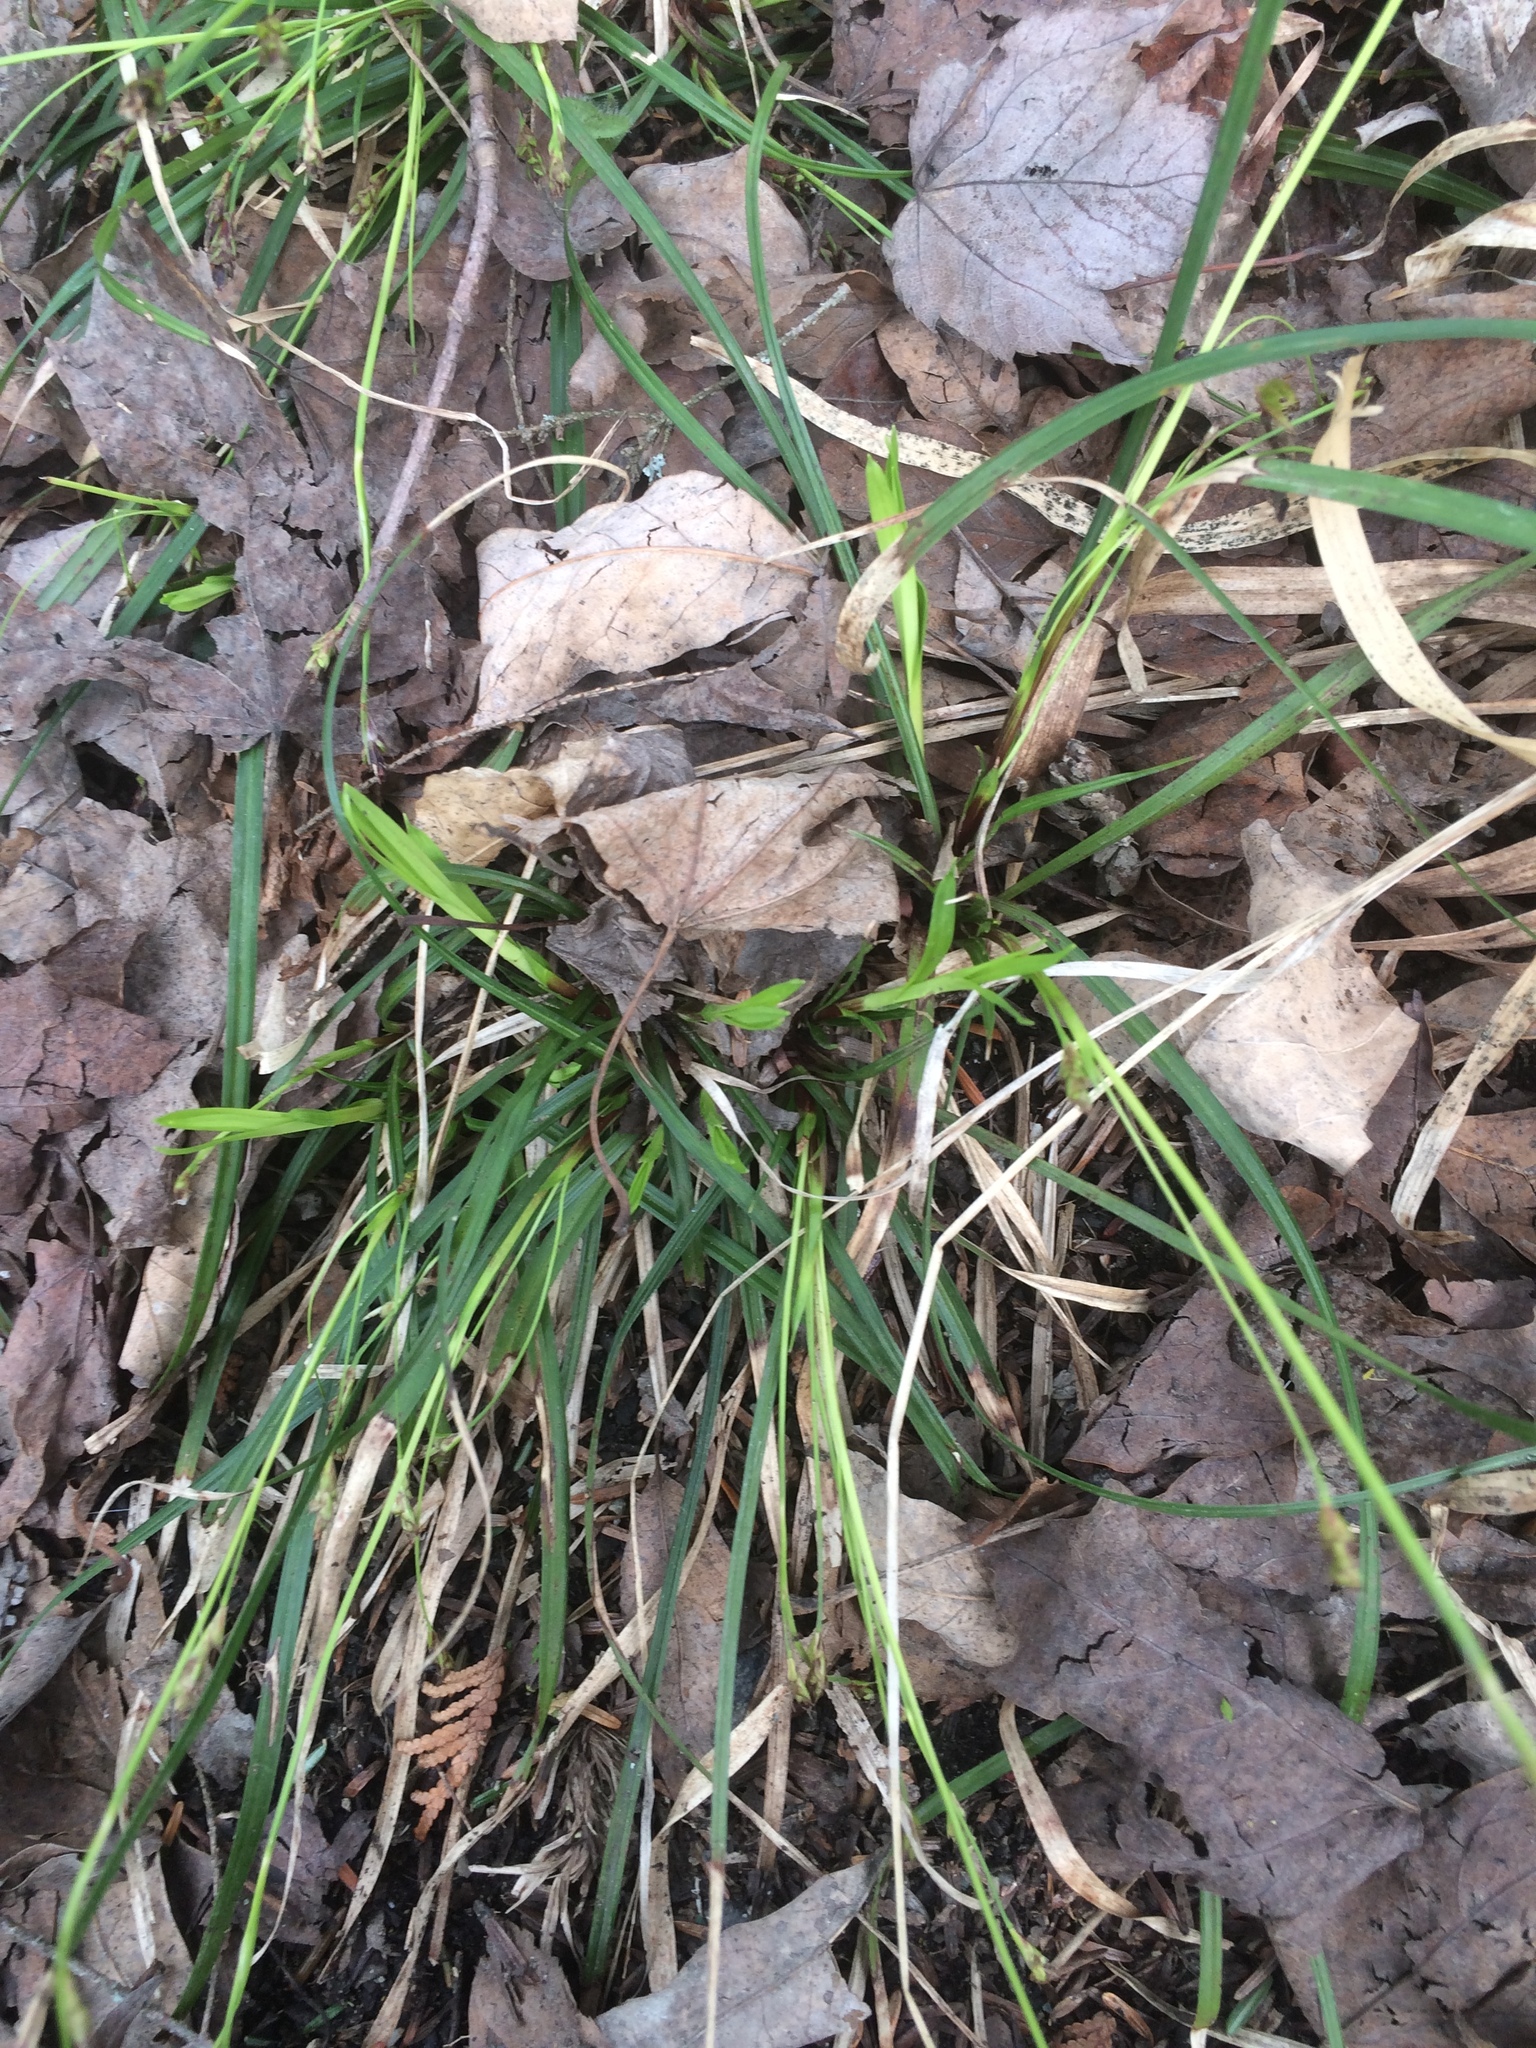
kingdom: Plantae
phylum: Tracheophyta
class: Liliopsida
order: Poales
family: Cyperaceae
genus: Carex
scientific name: Carex pedunculata
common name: Pedunculate sedge
